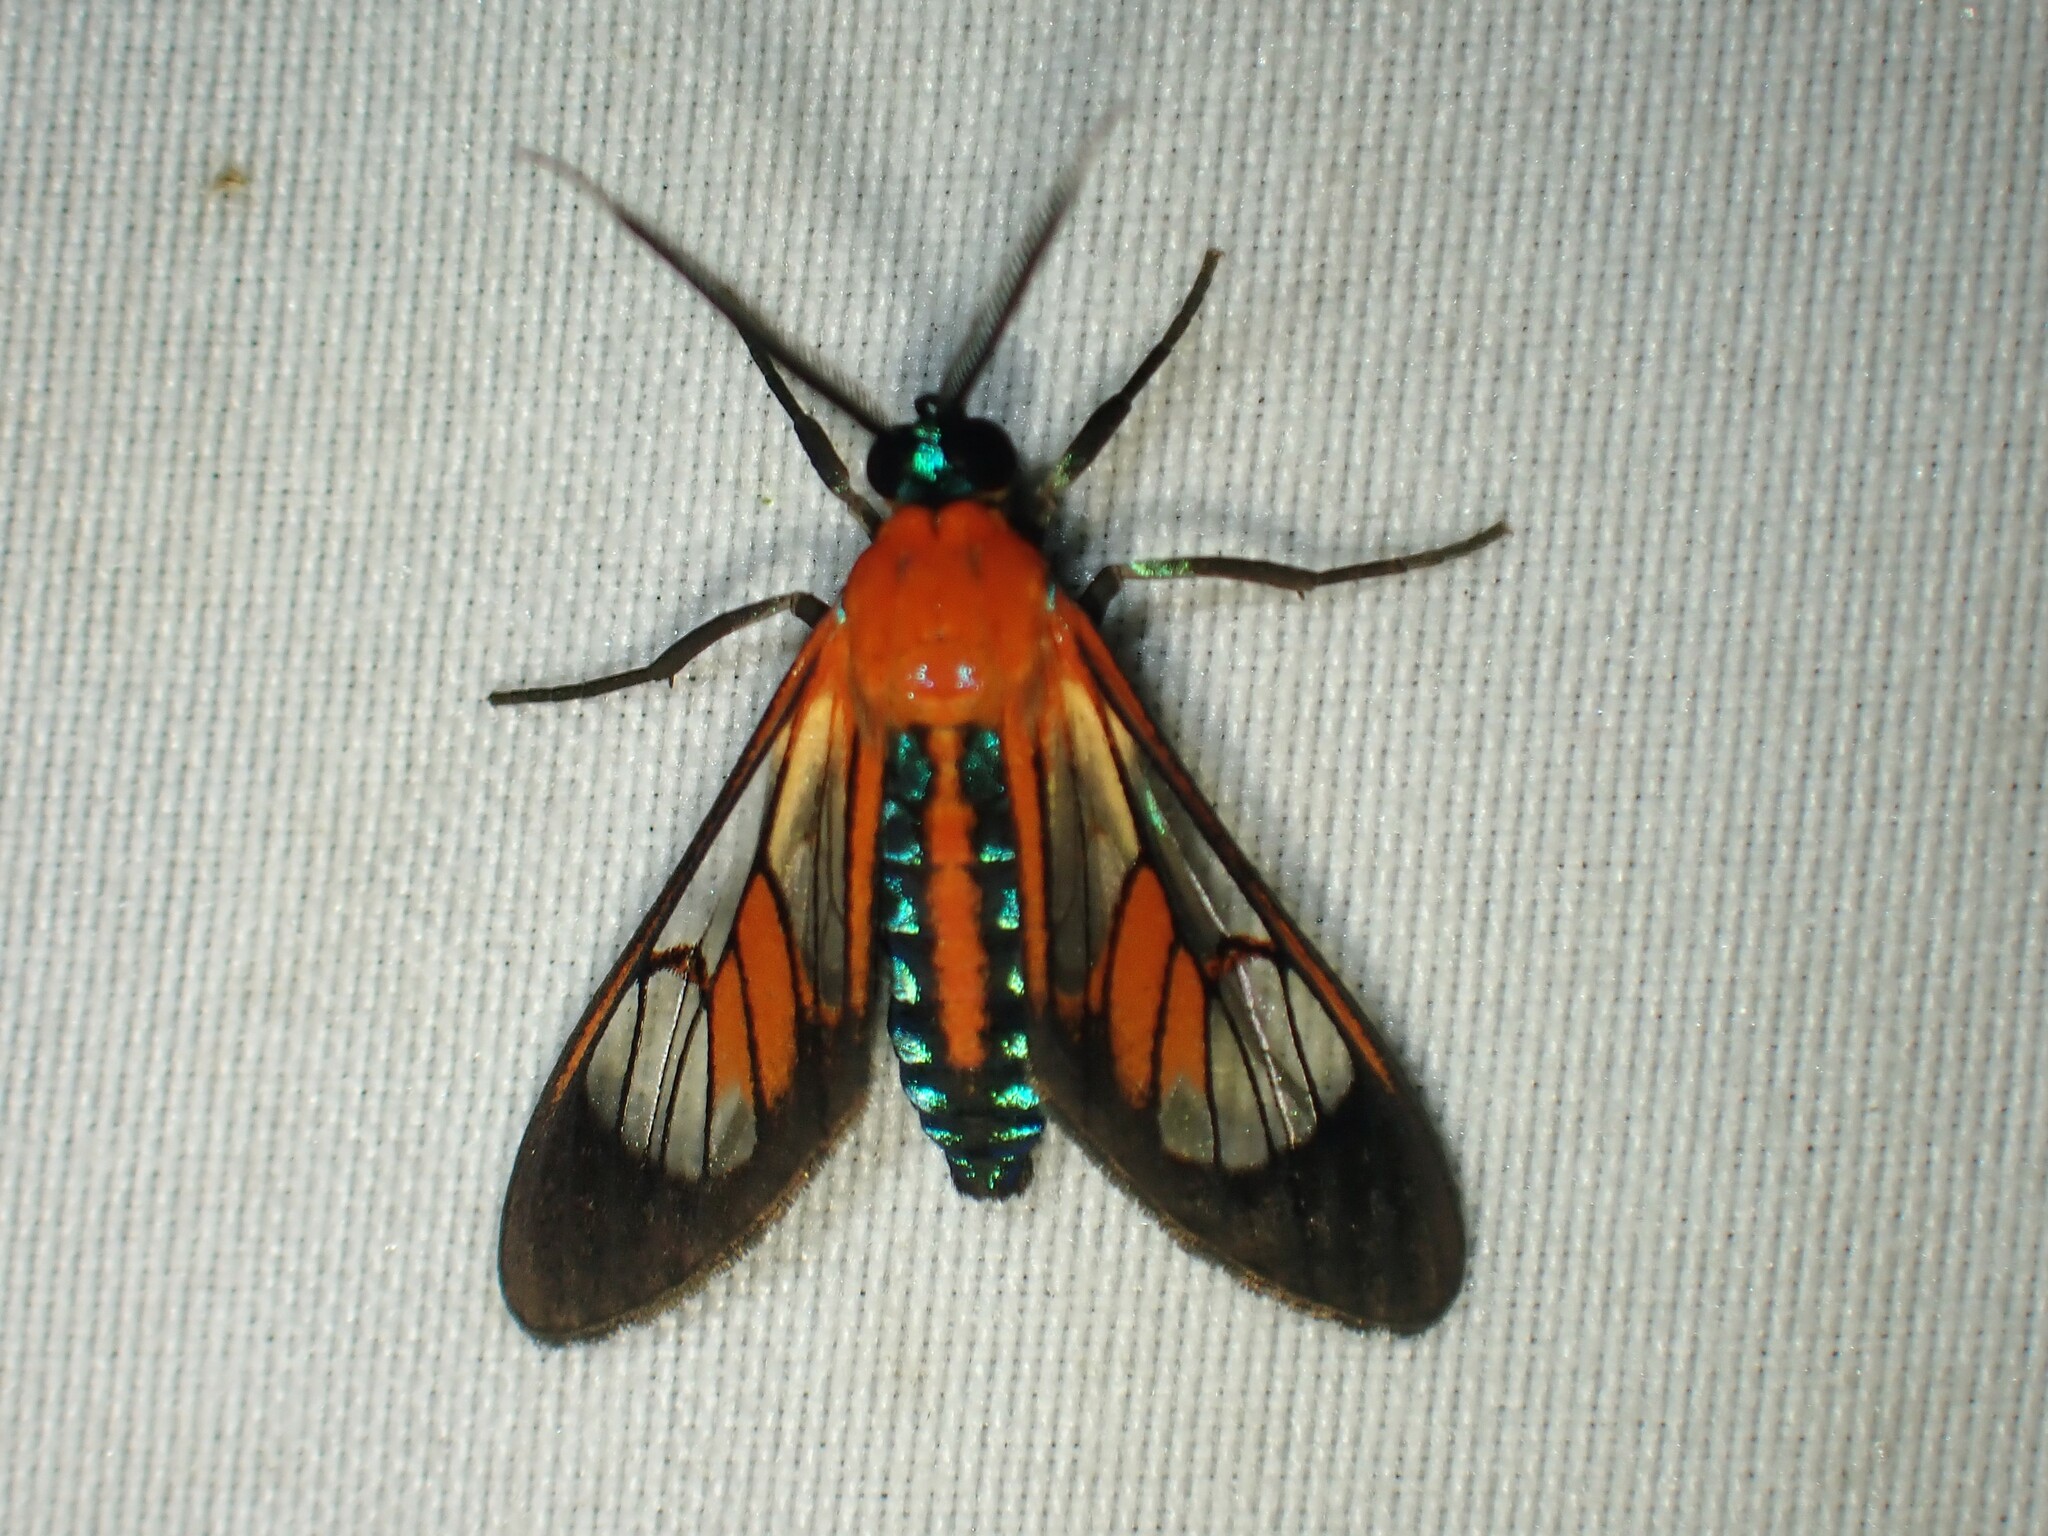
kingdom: Animalia
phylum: Arthropoda
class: Insecta
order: Lepidoptera
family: Erebidae
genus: Cosmosoma
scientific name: Cosmosoma achemon
